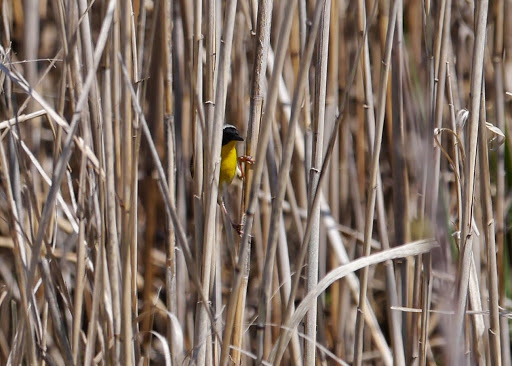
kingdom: Animalia
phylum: Chordata
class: Aves
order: Passeriformes
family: Parulidae
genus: Geothlypis
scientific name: Geothlypis trichas
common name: Common yellowthroat
